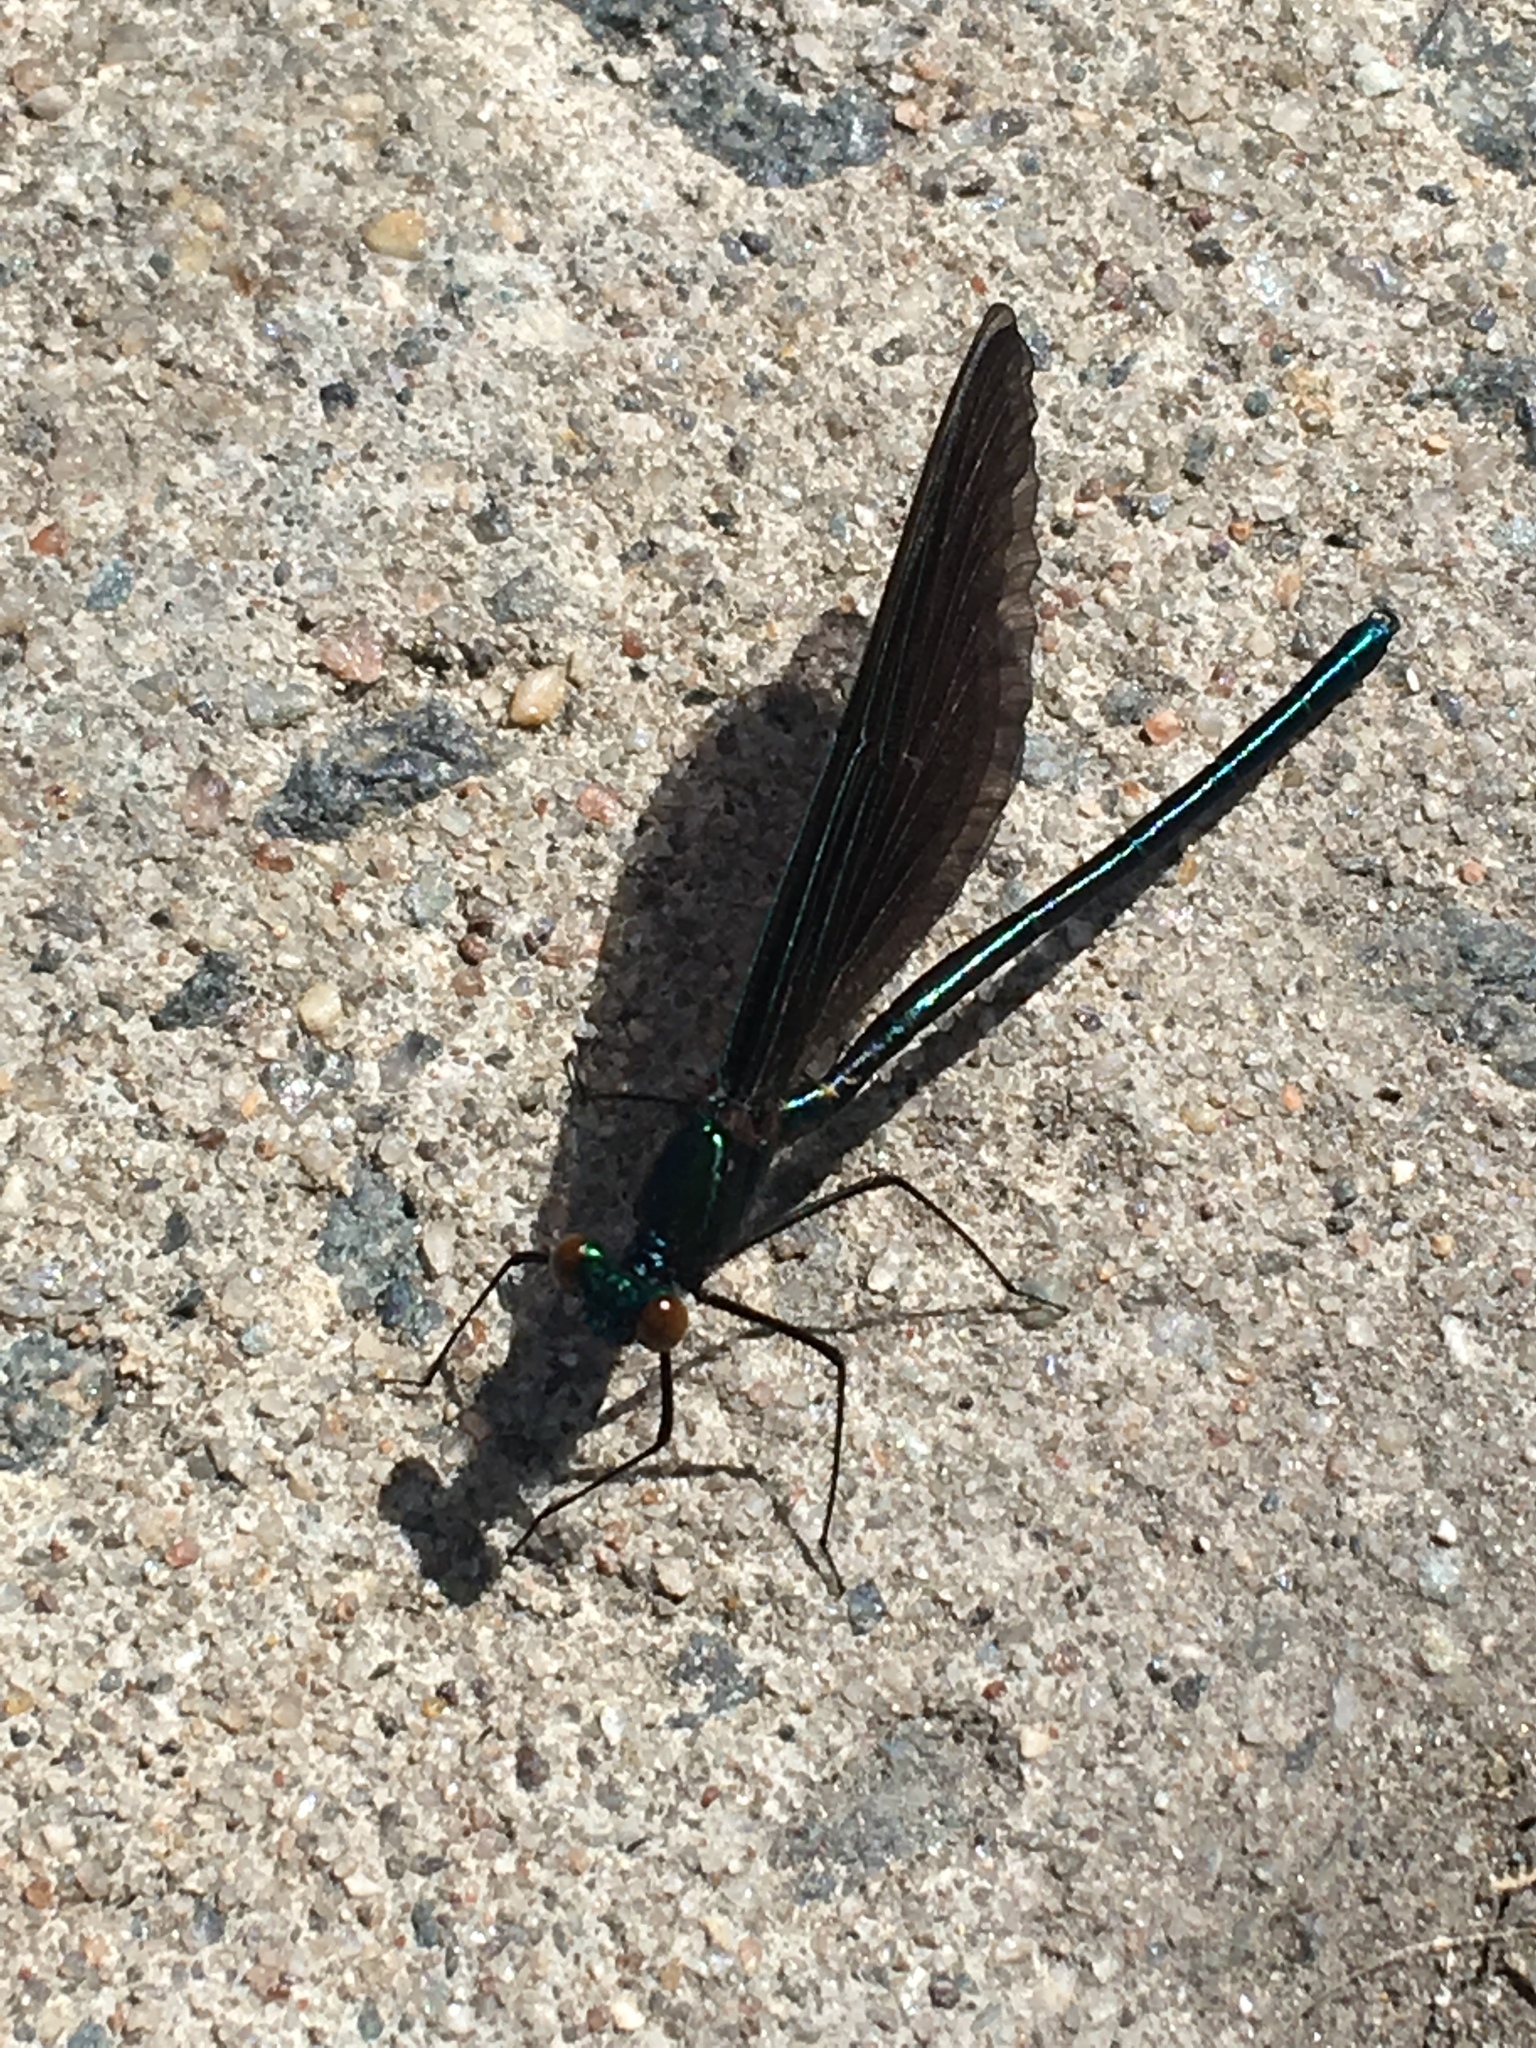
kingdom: Animalia
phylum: Arthropoda
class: Insecta
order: Odonata
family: Calopterygidae
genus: Calopteryx
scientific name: Calopteryx maculata
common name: Ebony jewelwing
